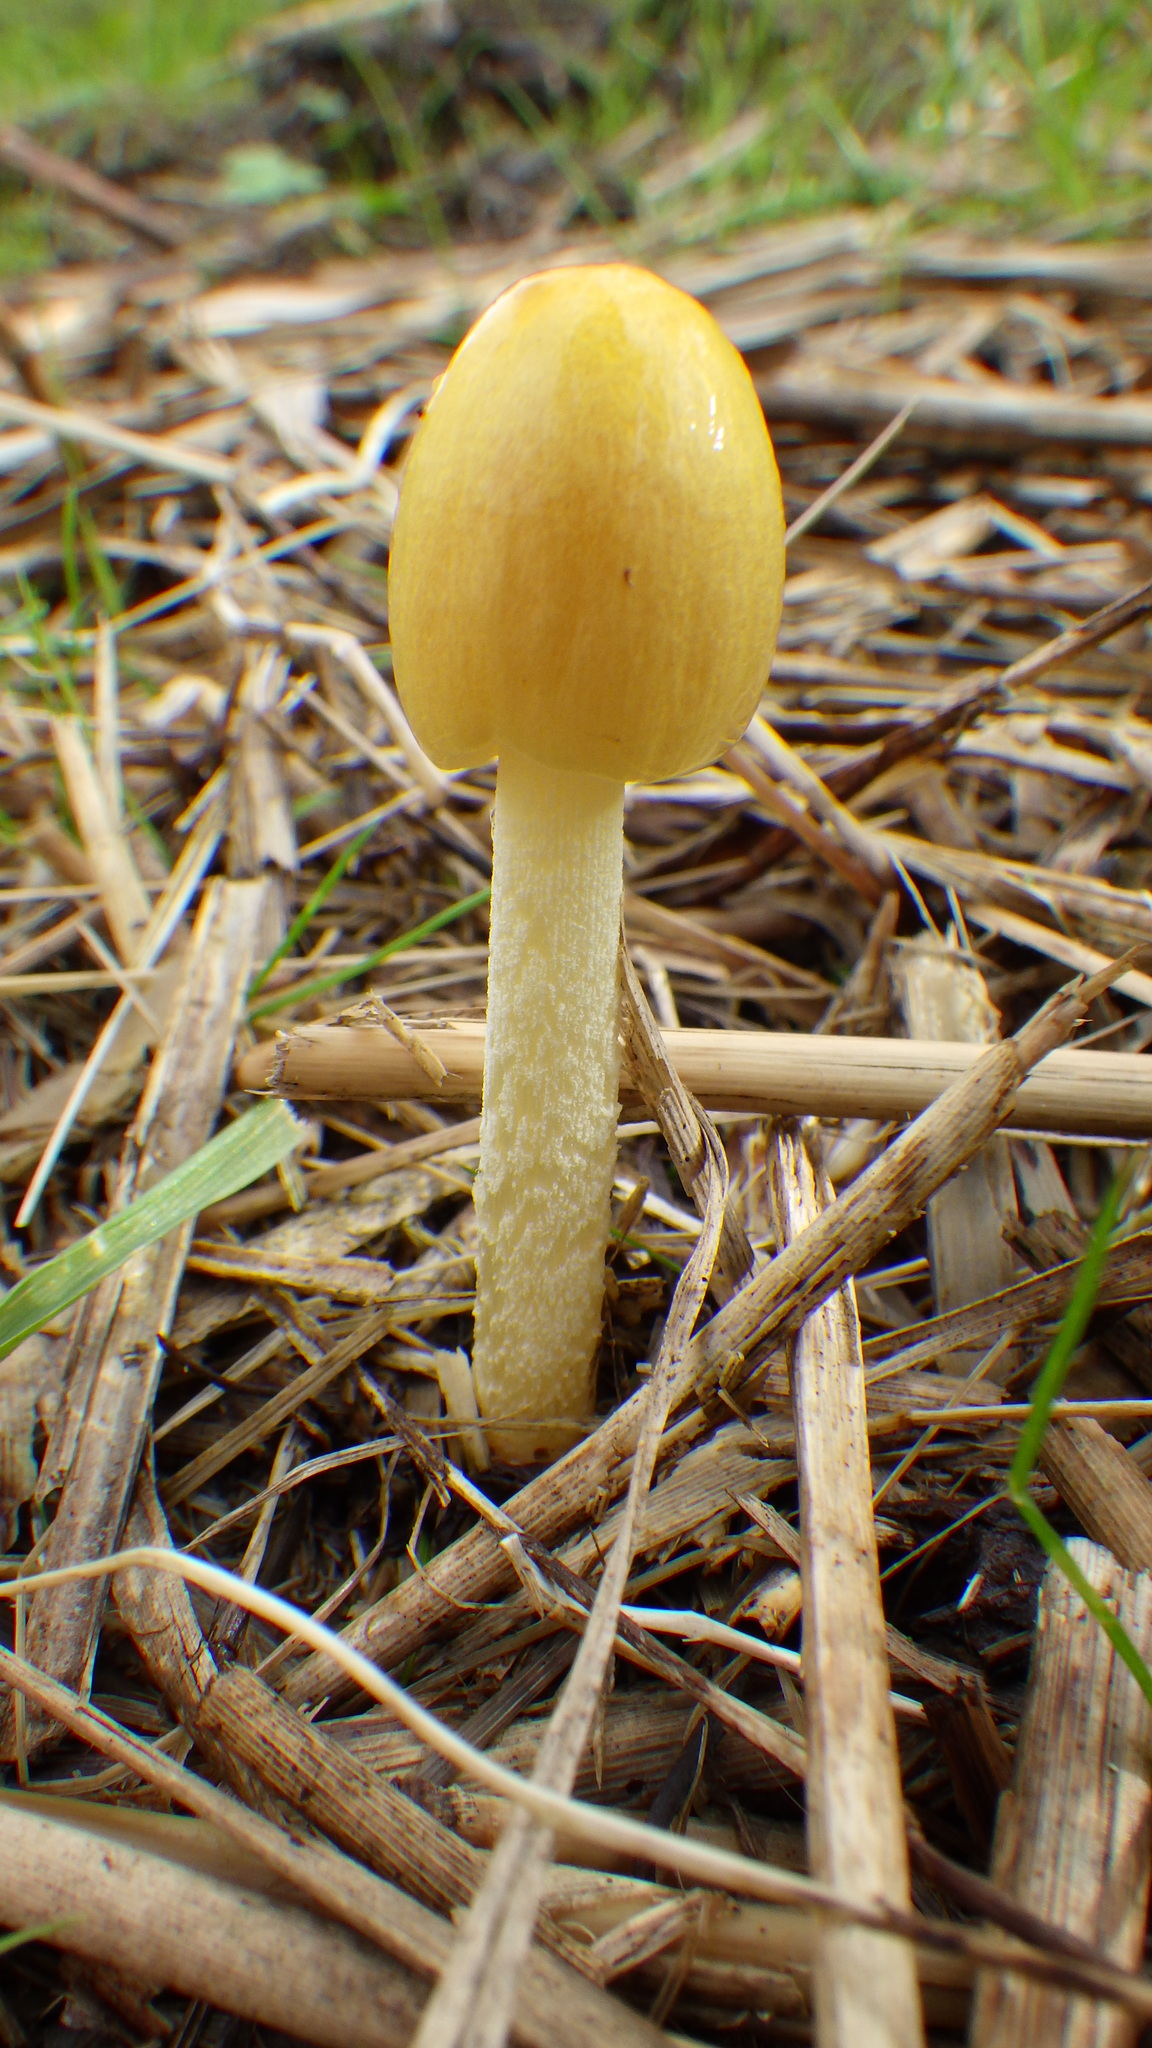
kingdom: Fungi
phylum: Basidiomycota
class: Agaricomycetes
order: Agaricales
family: Bolbitiaceae
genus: Bolbitius
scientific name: Bolbitius titubans
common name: Yellow fieldcap
